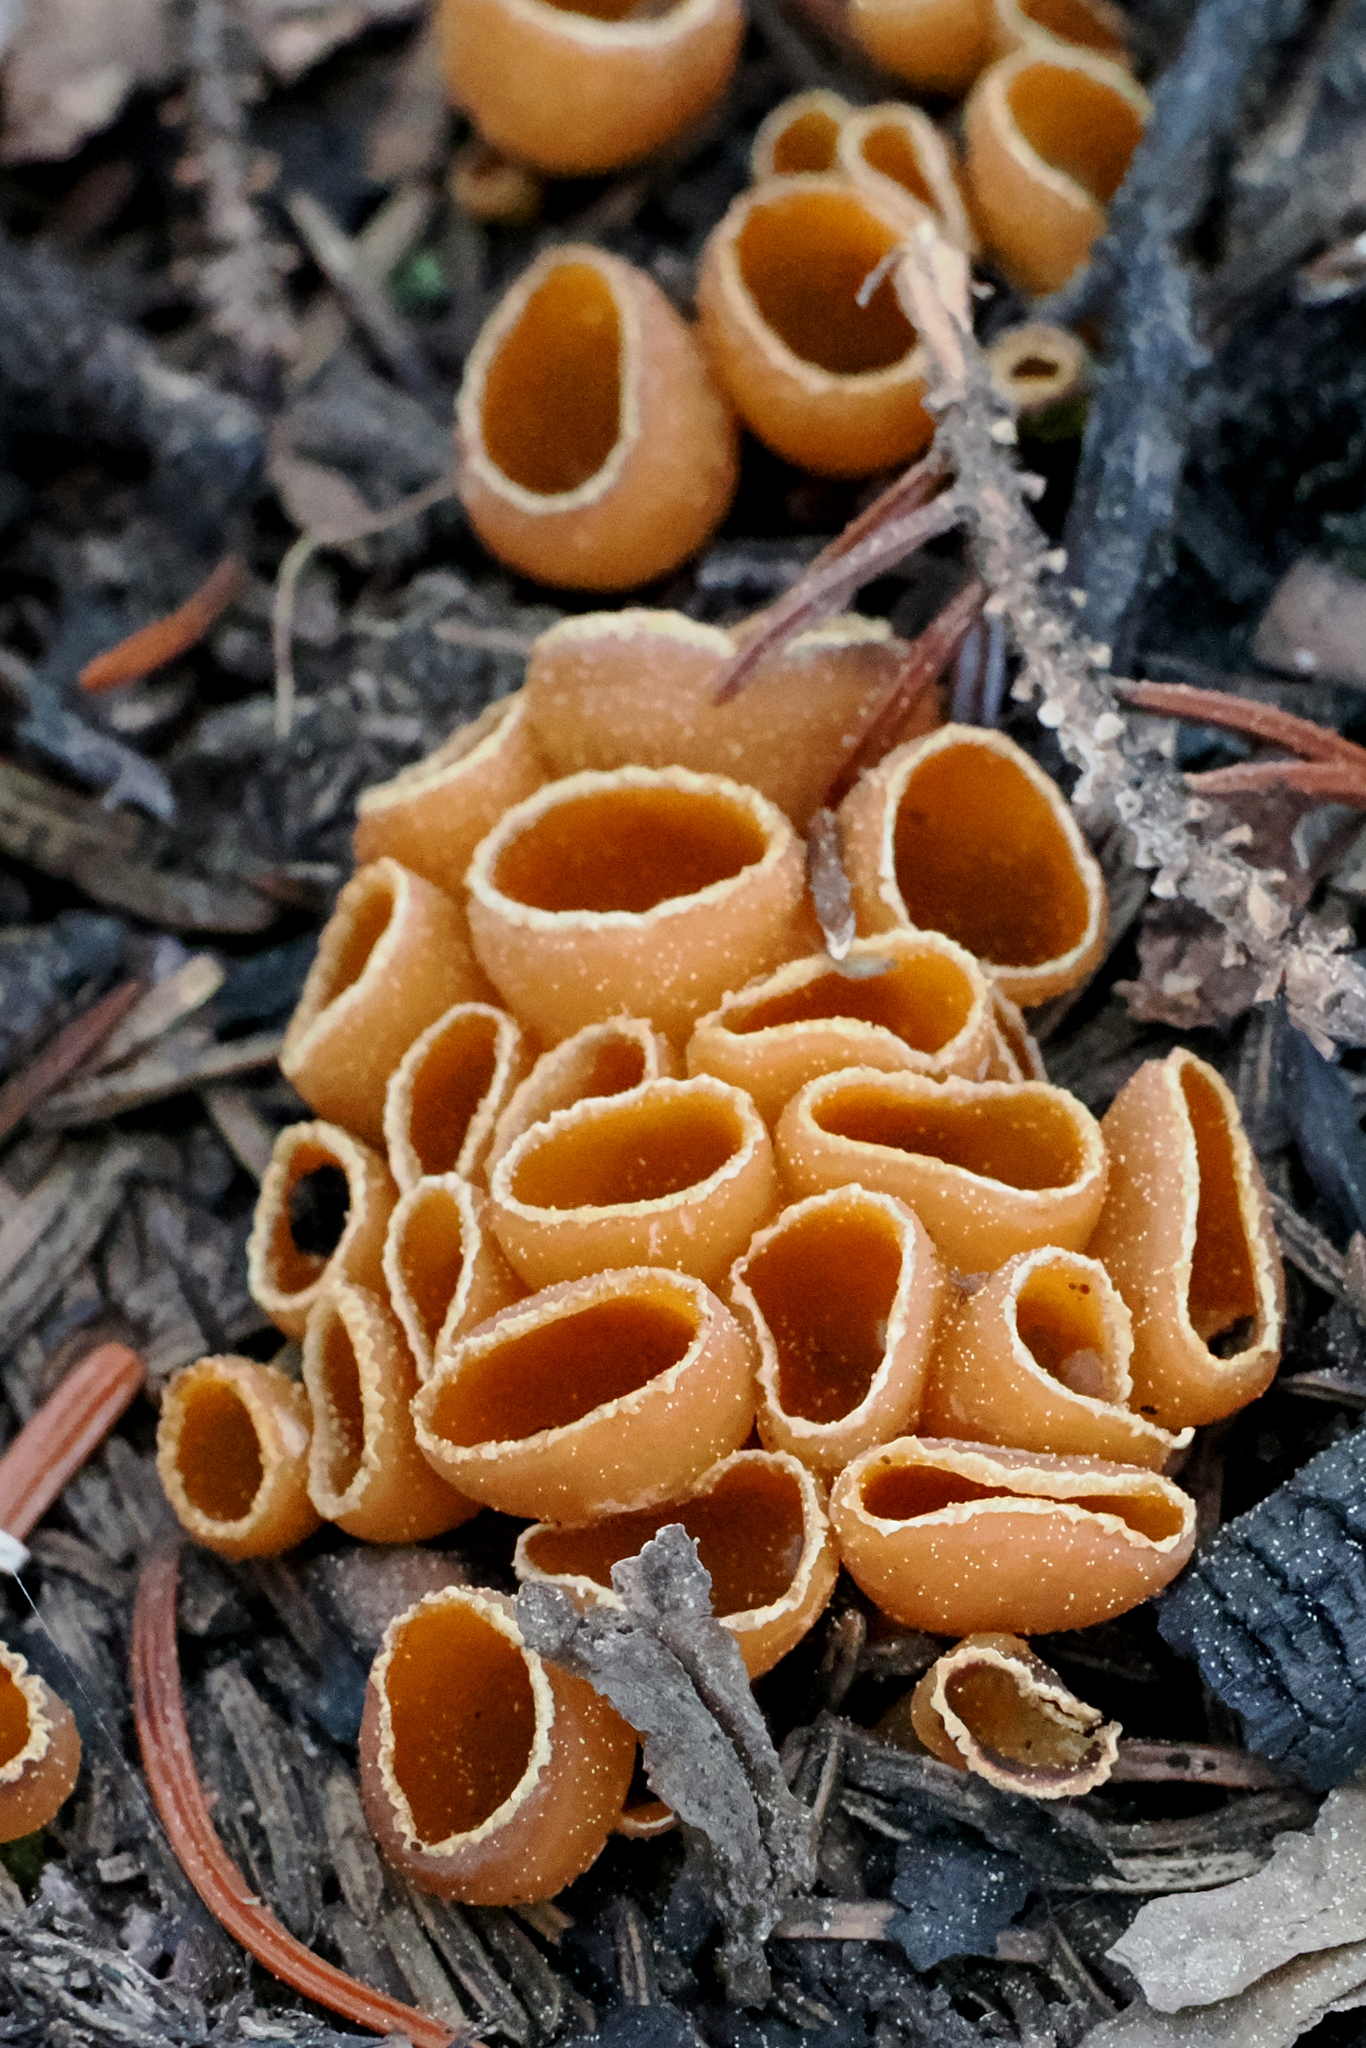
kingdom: Fungi
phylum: Ascomycota
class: Pezizomycetes
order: Pezizales
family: Pyronemataceae
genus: Geopyxis
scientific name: Geopyxis carbonaria
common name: Stalked bonfire cup
